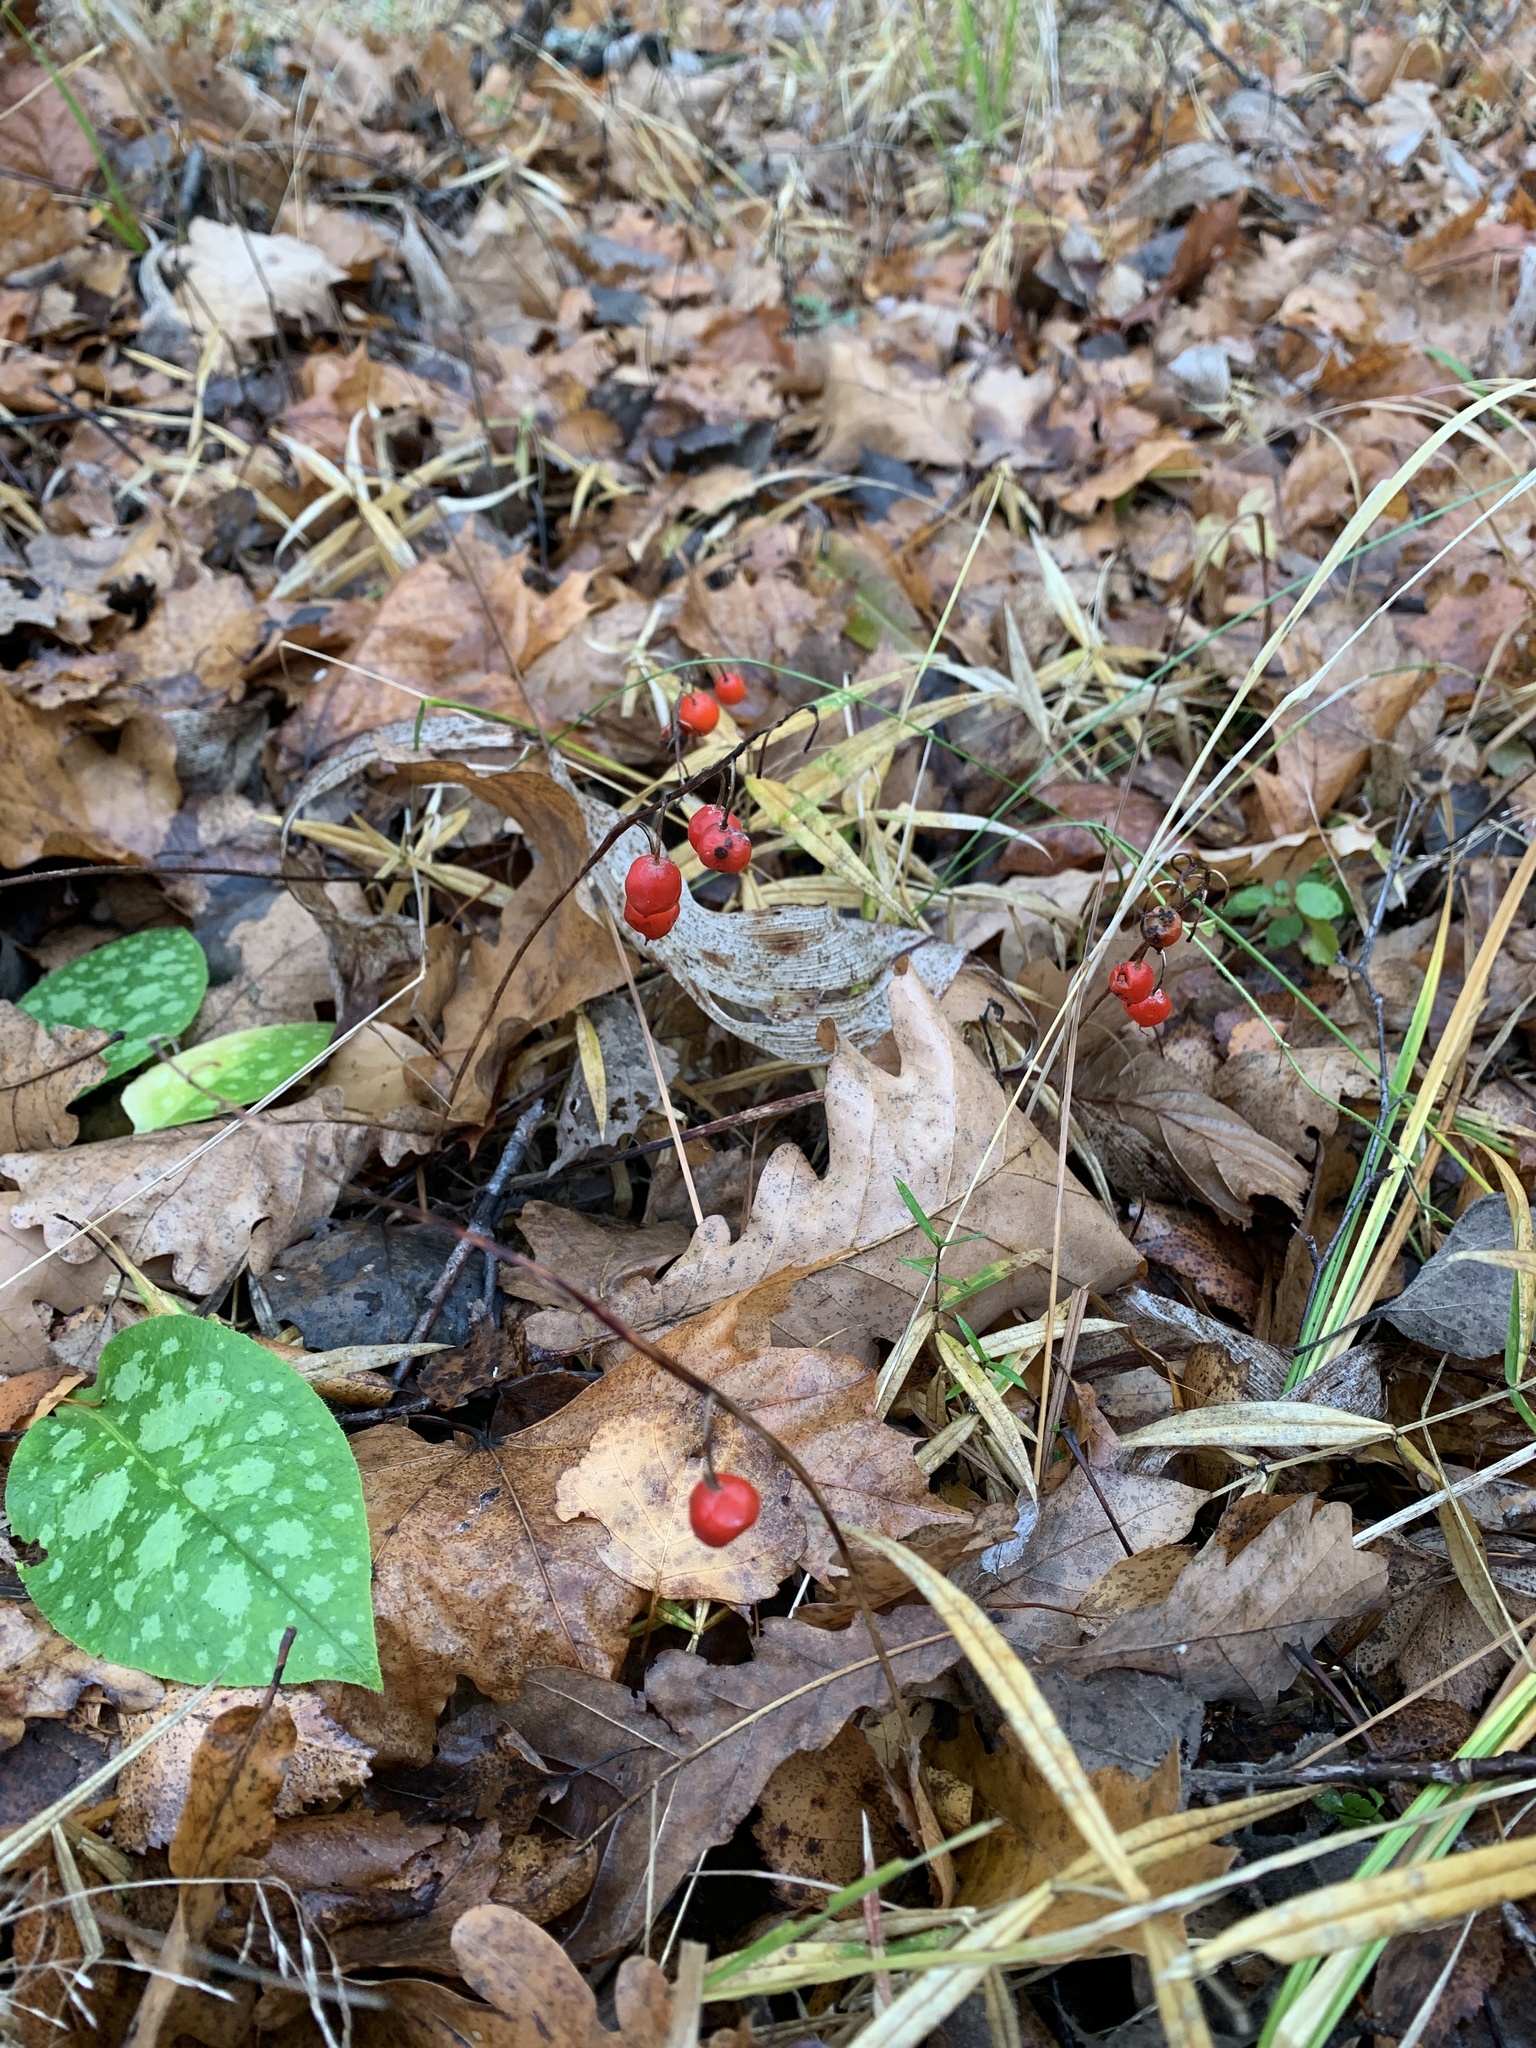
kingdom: Plantae
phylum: Tracheophyta
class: Liliopsida
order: Asparagales
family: Asparagaceae
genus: Convallaria
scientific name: Convallaria majalis
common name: Lily-of-the-valley
